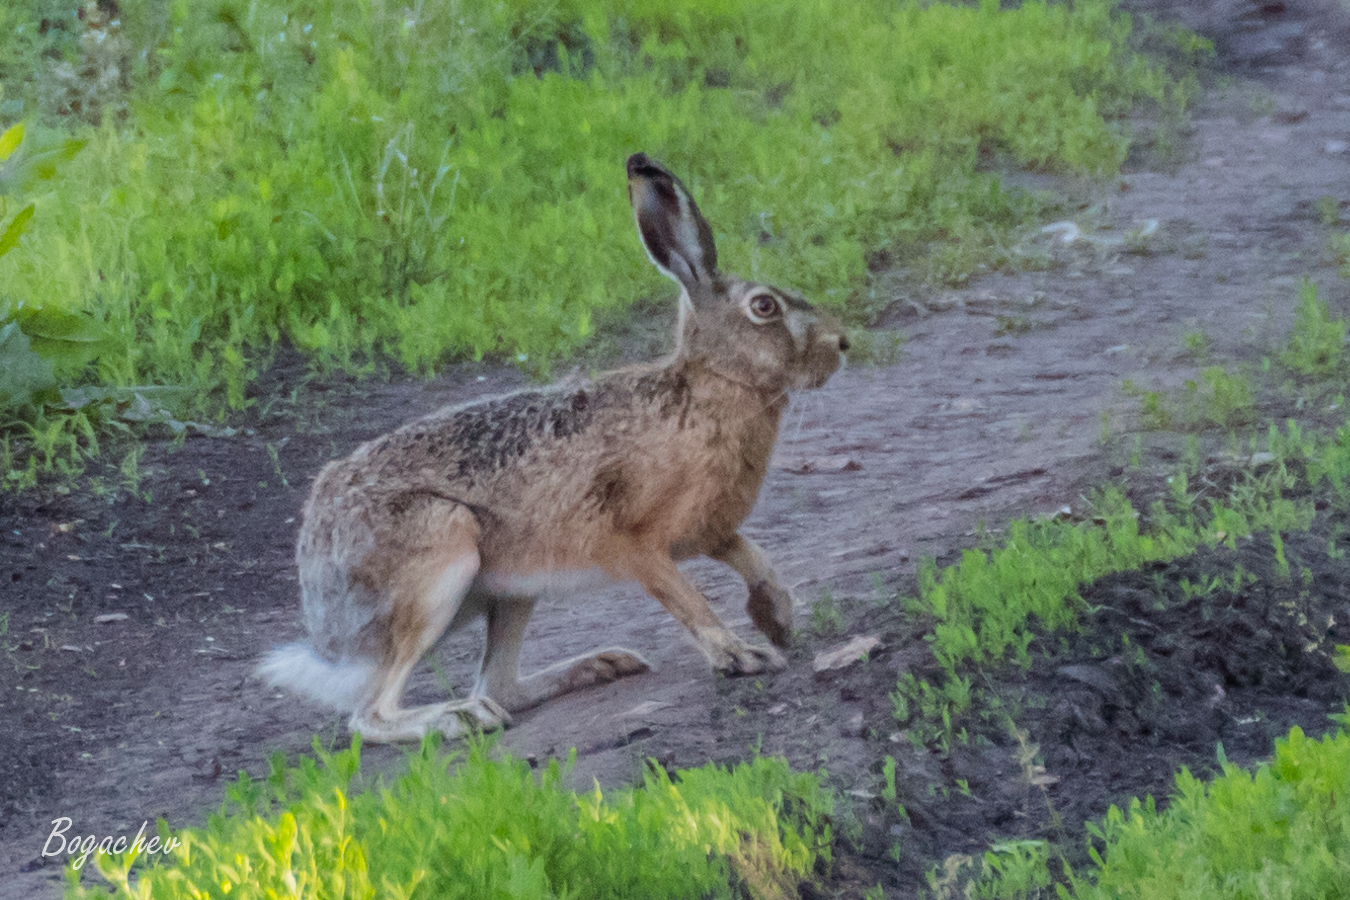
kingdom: Animalia
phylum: Chordata
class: Mammalia
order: Lagomorpha
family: Leporidae
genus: Lepus
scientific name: Lepus europaeus
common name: European hare
